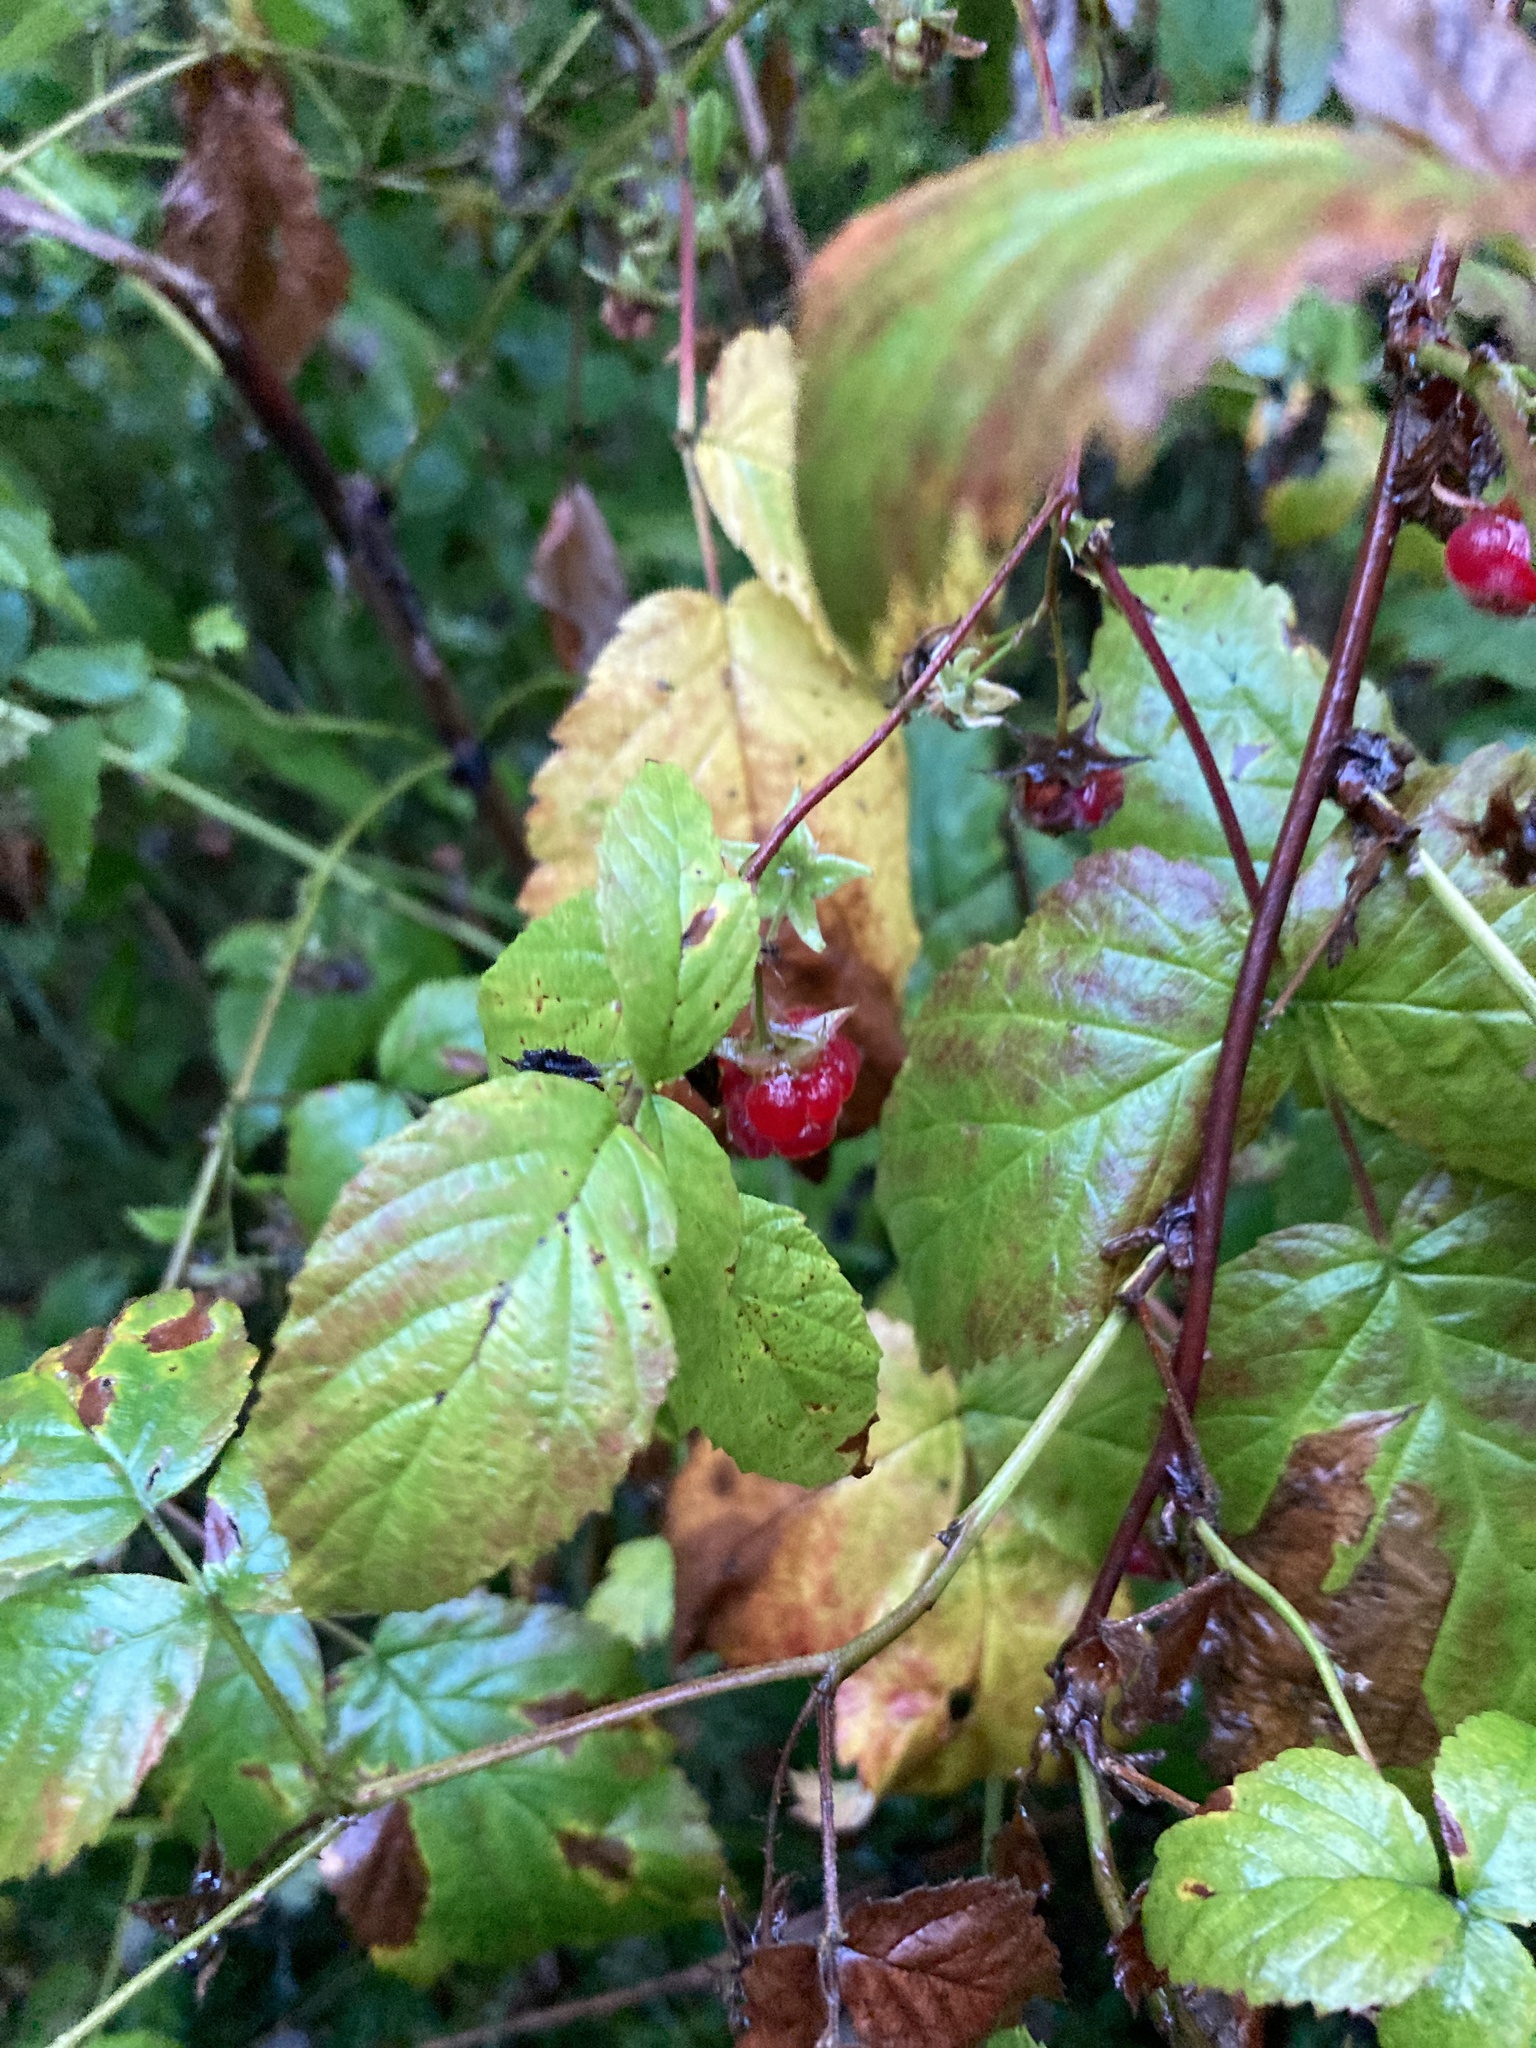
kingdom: Plantae
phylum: Tracheophyta
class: Magnoliopsida
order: Rosales
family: Rosaceae
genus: Rubus
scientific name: Rubus idaeus
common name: Raspberry
